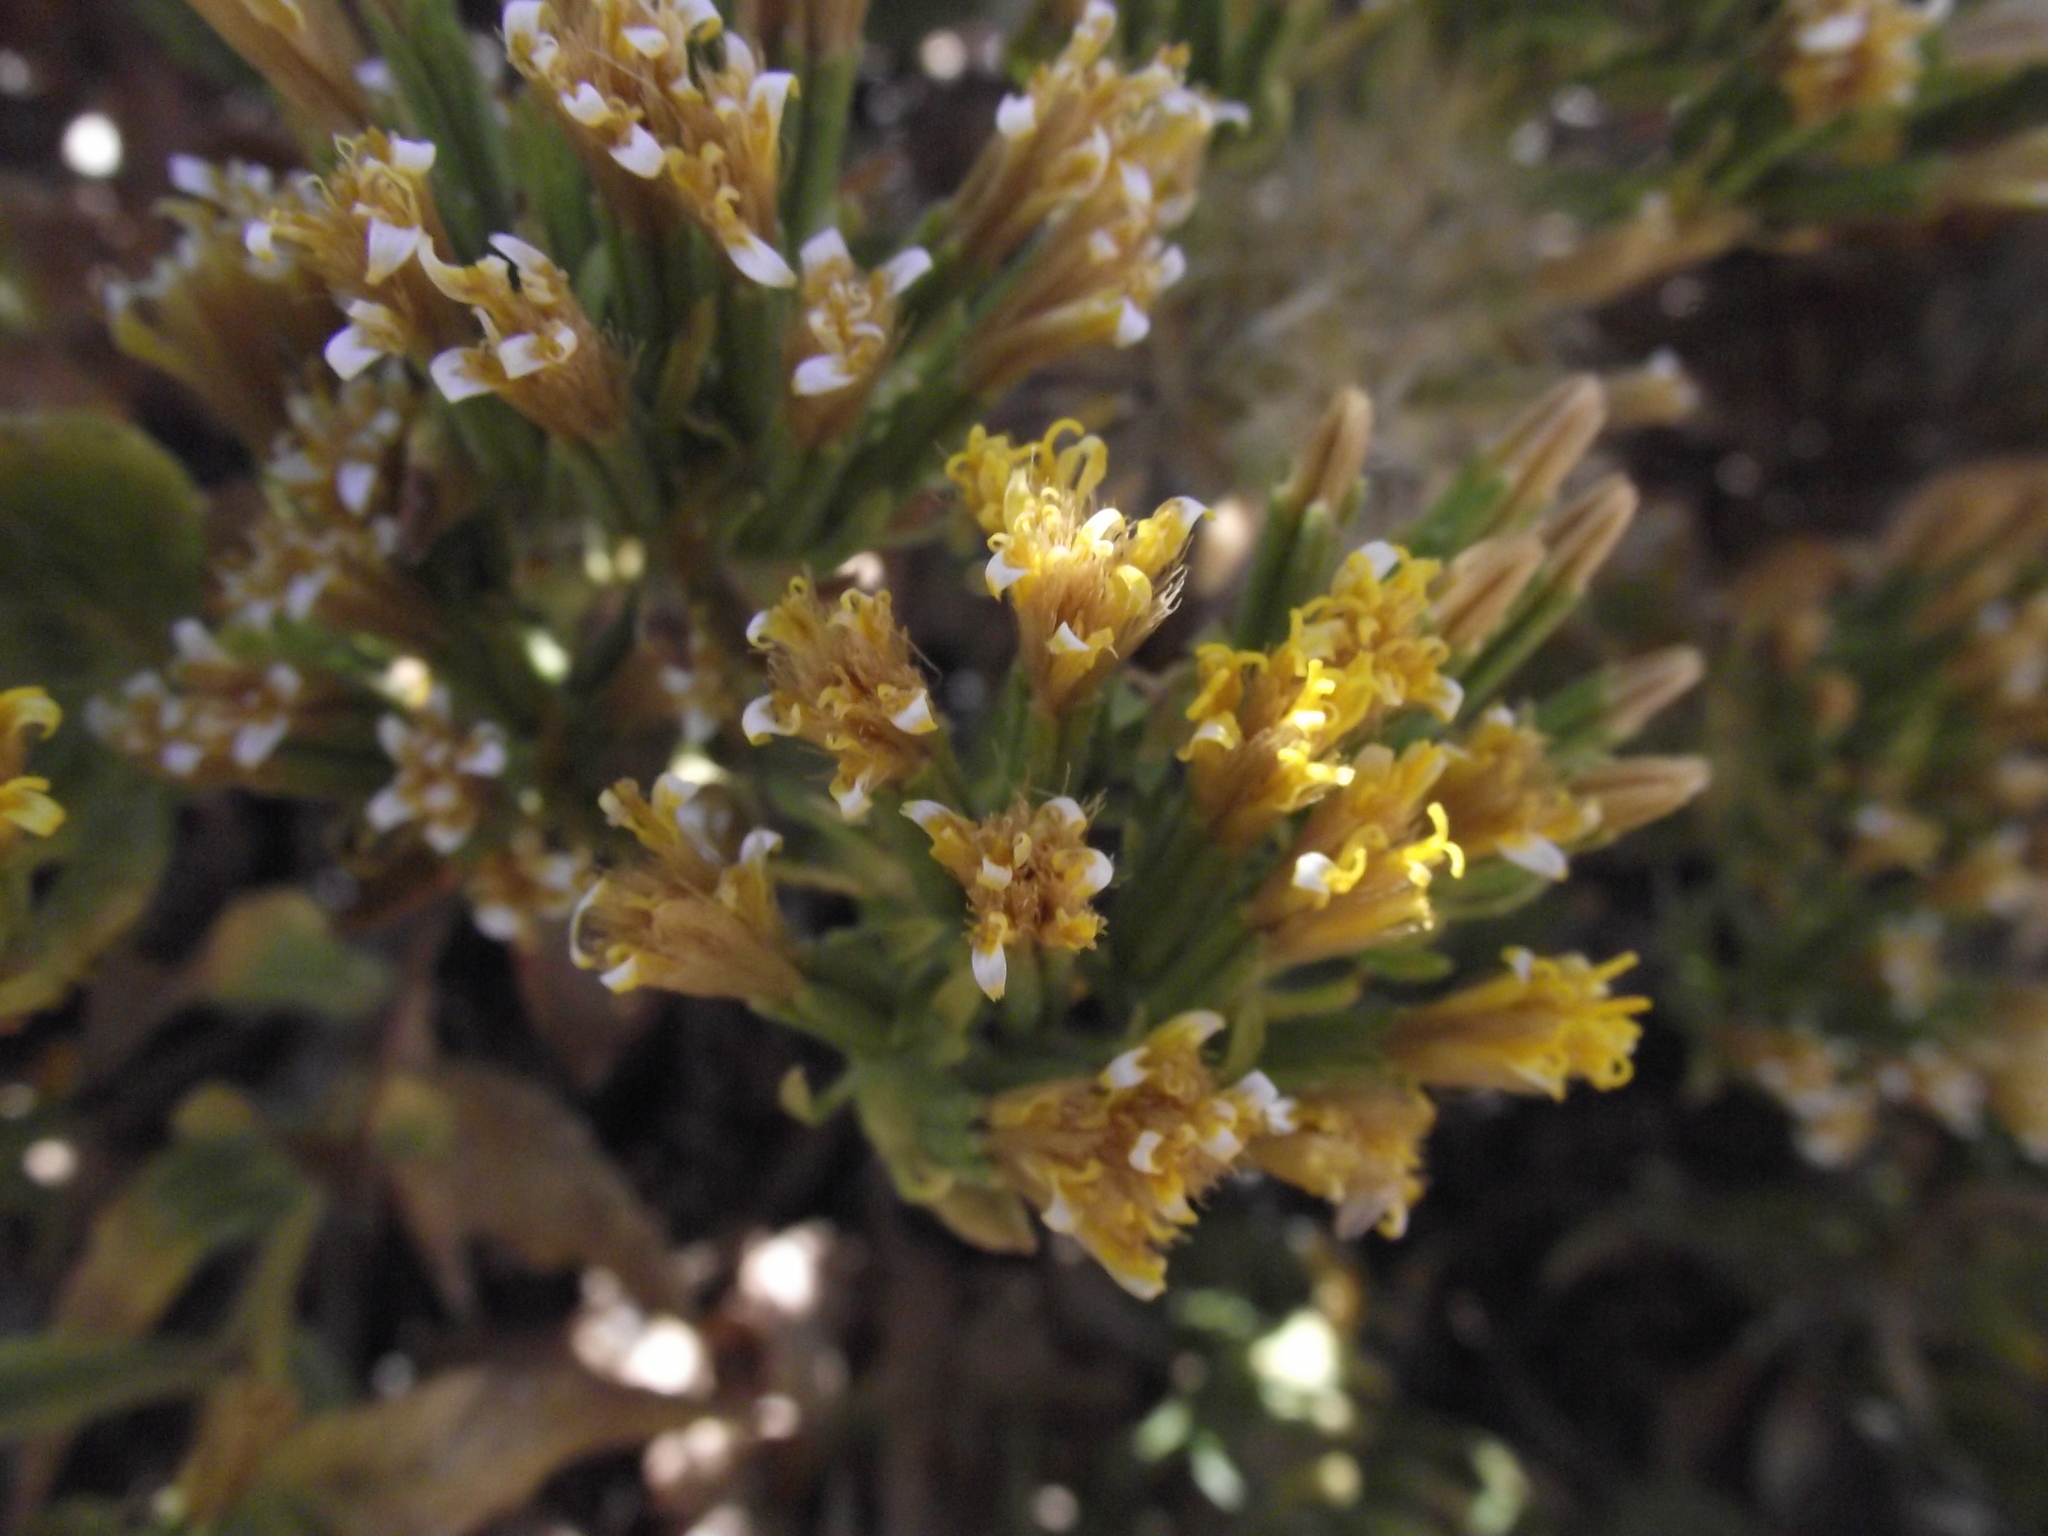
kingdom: Plantae
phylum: Tracheophyta
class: Magnoliopsida
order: Asterales
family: Asteraceae
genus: Trixis
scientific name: Trixis cacalioides
